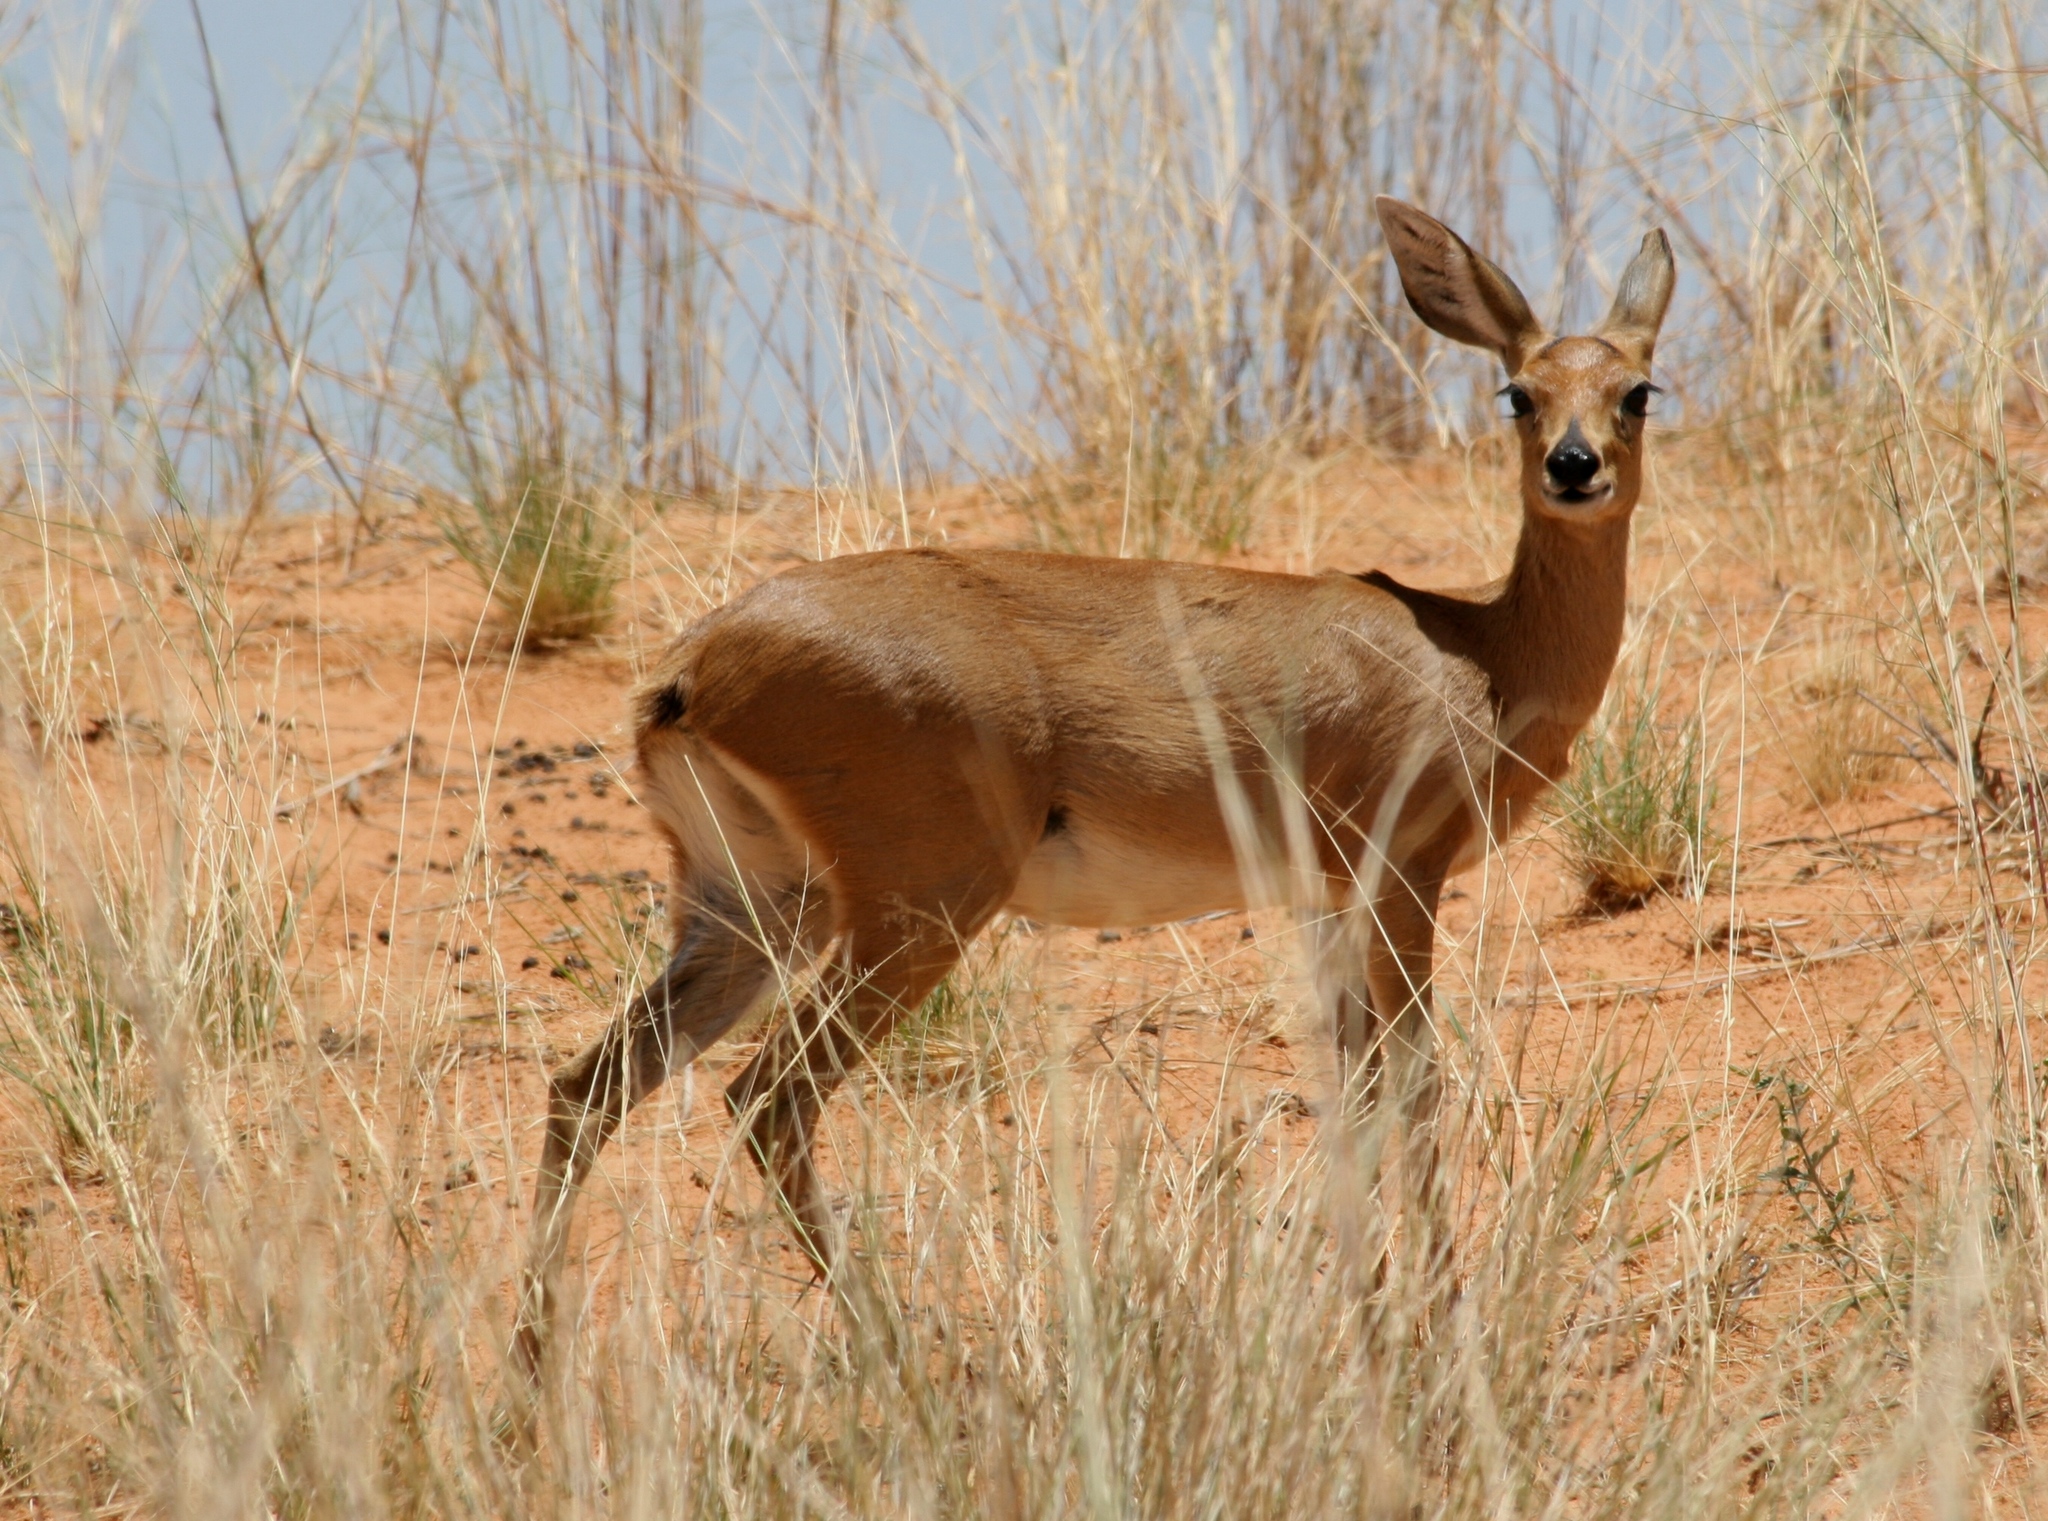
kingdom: Animalia
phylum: Chordata
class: Mammalia
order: Artiodactyla
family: Bovidae
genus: Raphicerus
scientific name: Raphicerus campestris
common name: Steenbok
